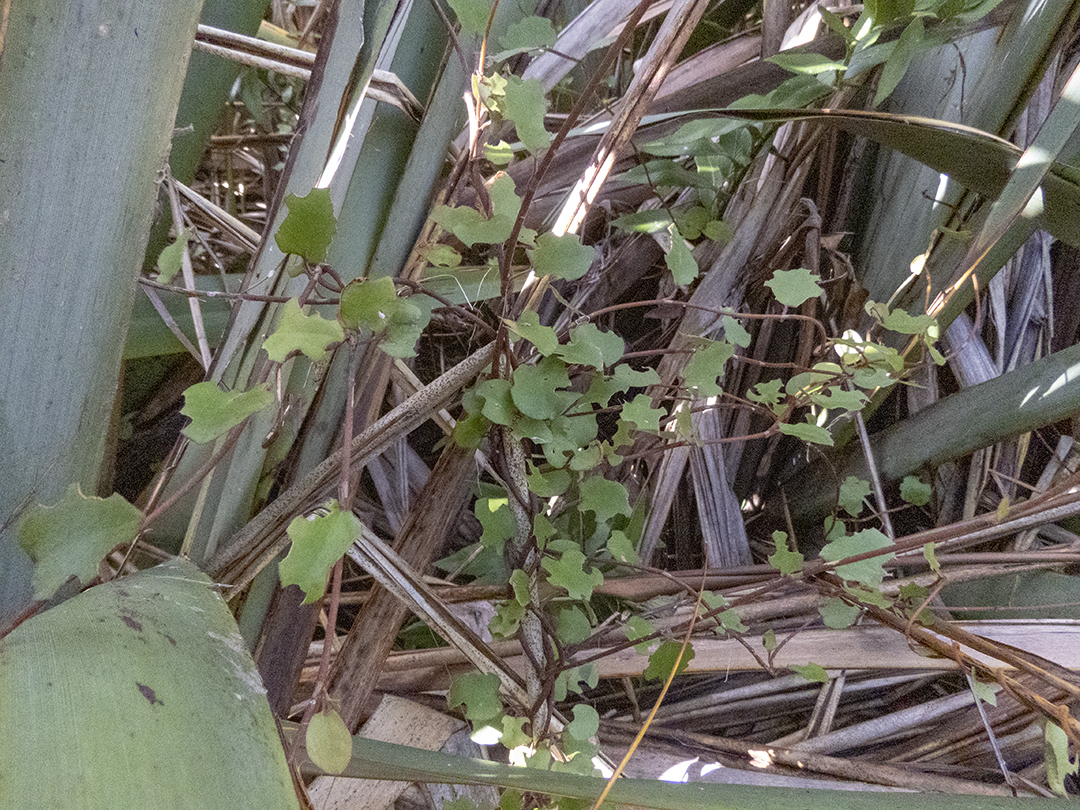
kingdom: Plantae
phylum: Tracheophyta
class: Magnoliopsida
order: Caryophyllales
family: Polygonaceae
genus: Muehlenbeckia
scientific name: Muehlenbeckia australis
